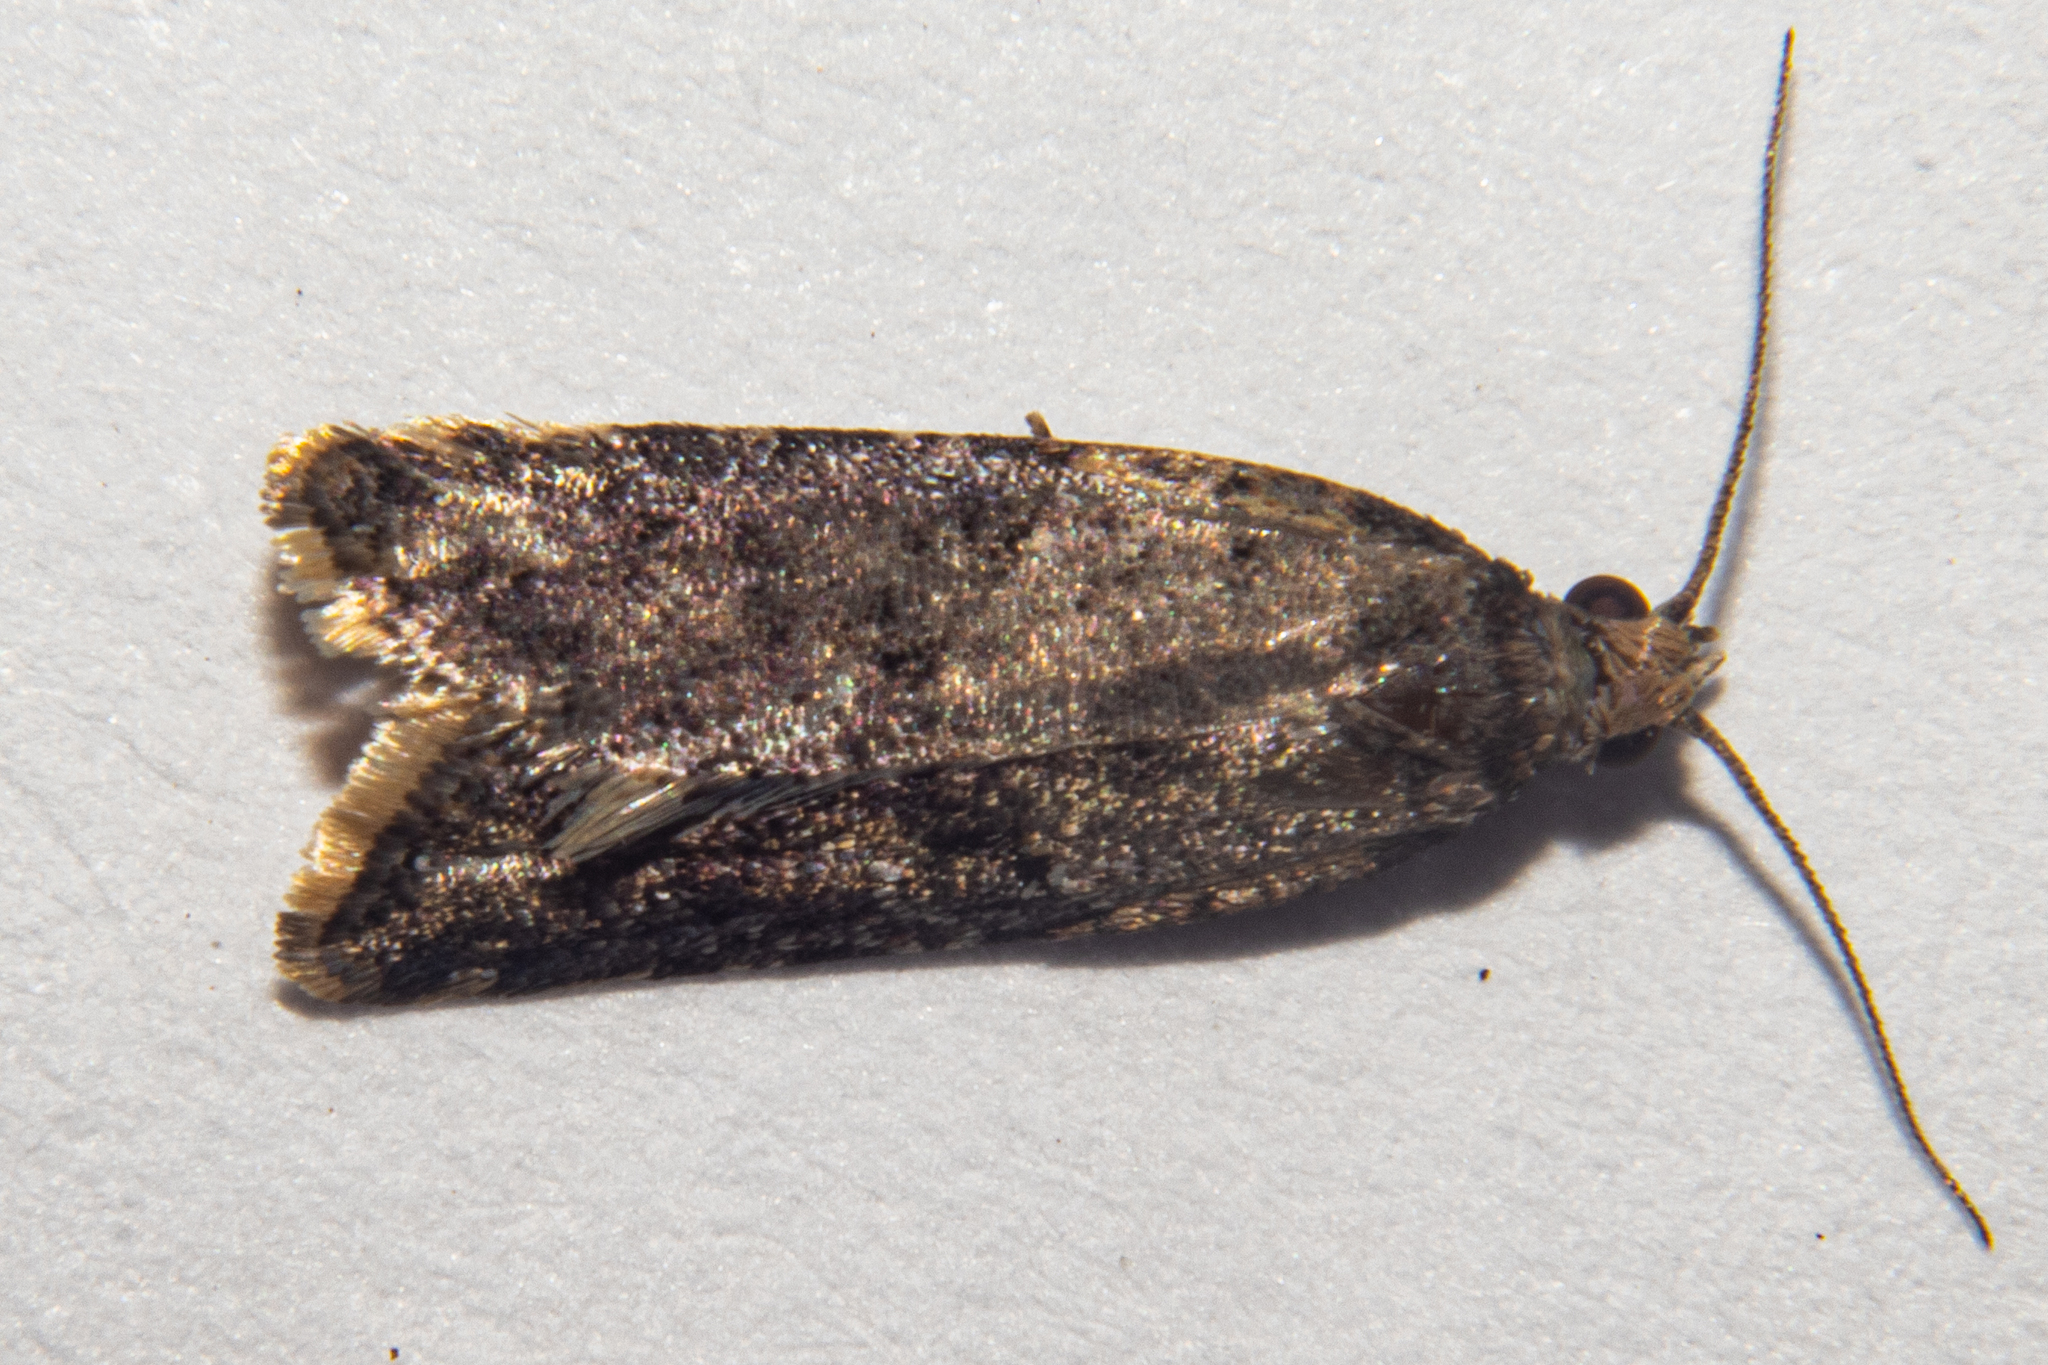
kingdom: Animalia
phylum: Arthropoda
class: Insecta
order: Lepidoptera
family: Tortricidae
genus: Capua
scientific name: Capua semiferana
